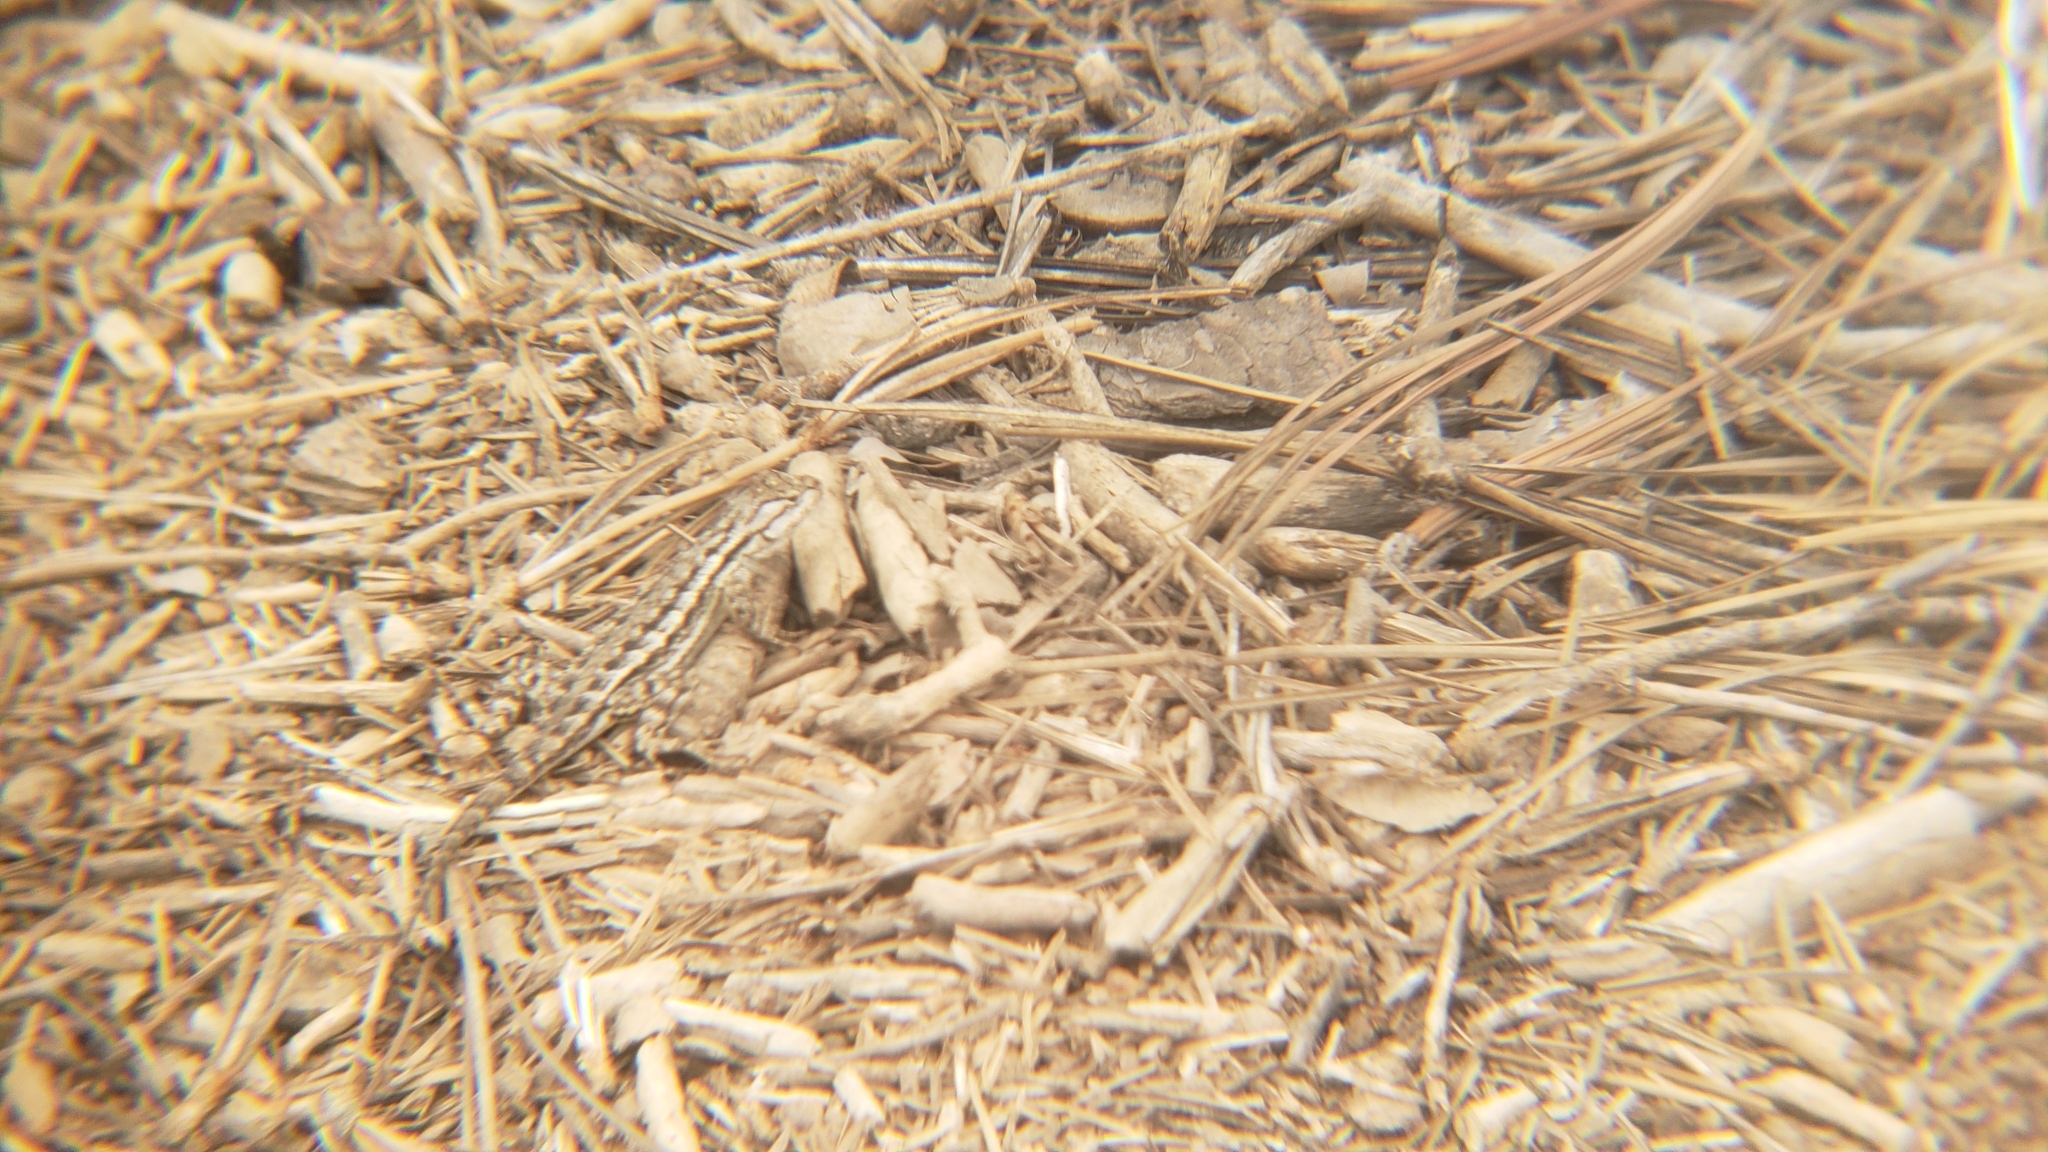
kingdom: Animalia
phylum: Chordata
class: Squamata
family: Phrynosomatidae
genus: Sceloporus
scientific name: Sceloporus occidentalis
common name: Western fence lizard
